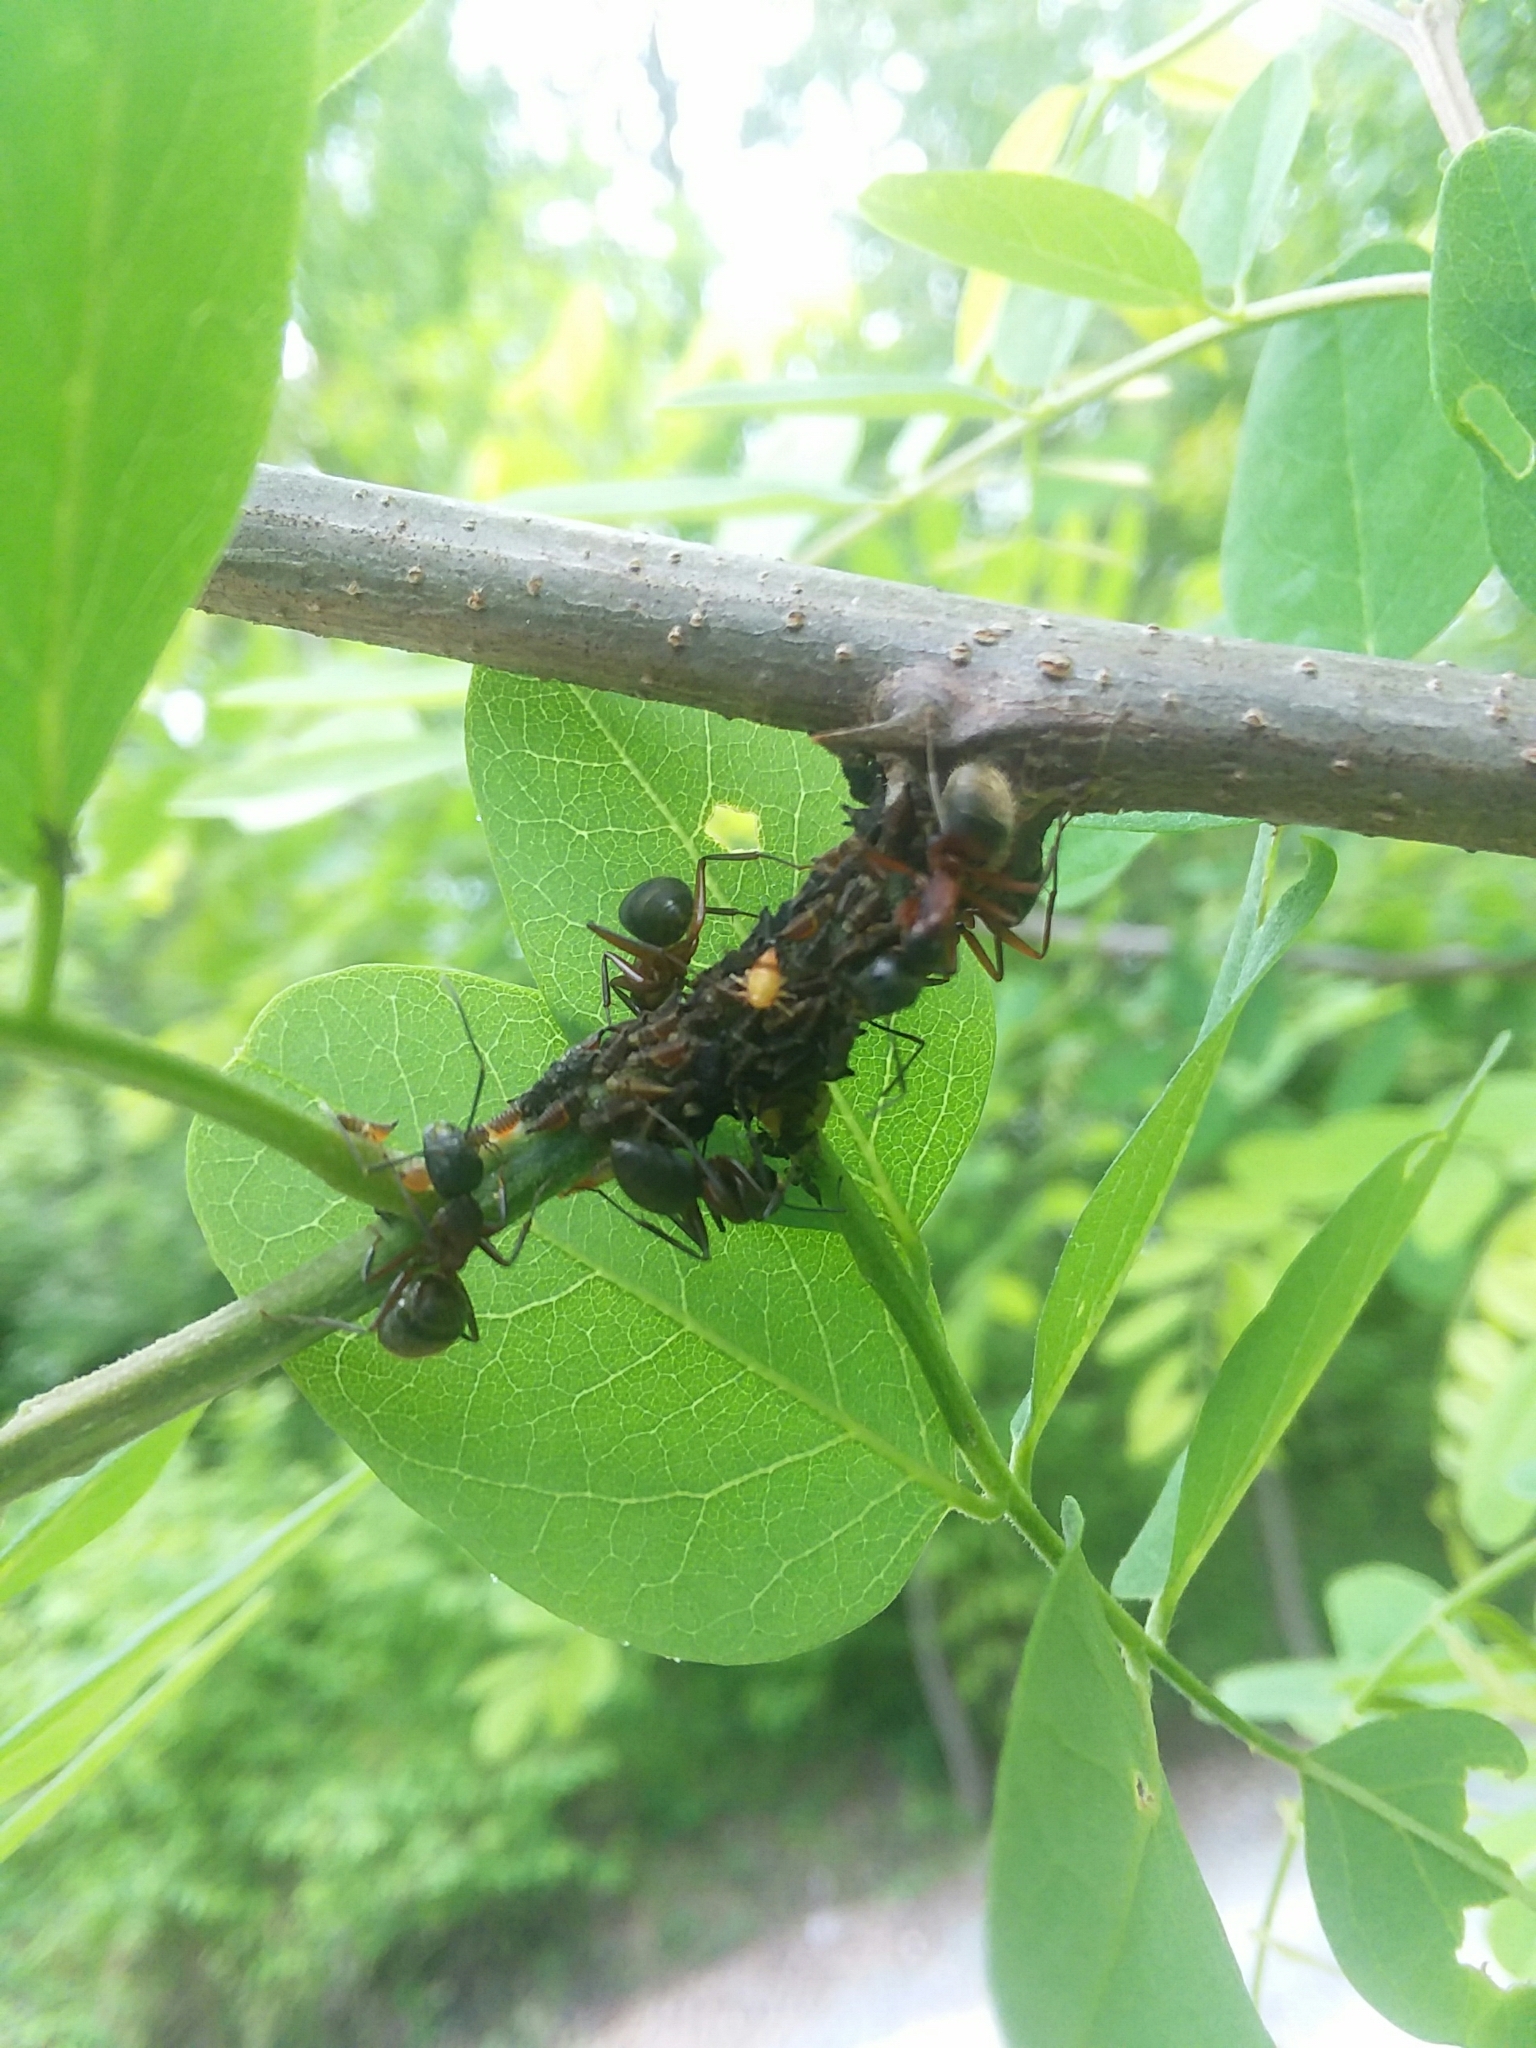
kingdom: Animalia
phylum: Arthropoda
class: Insecta
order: Hymenoptera
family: Formicidae
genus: Camponotus
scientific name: Camponotus chromaiodes
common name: Red carpenter ant
